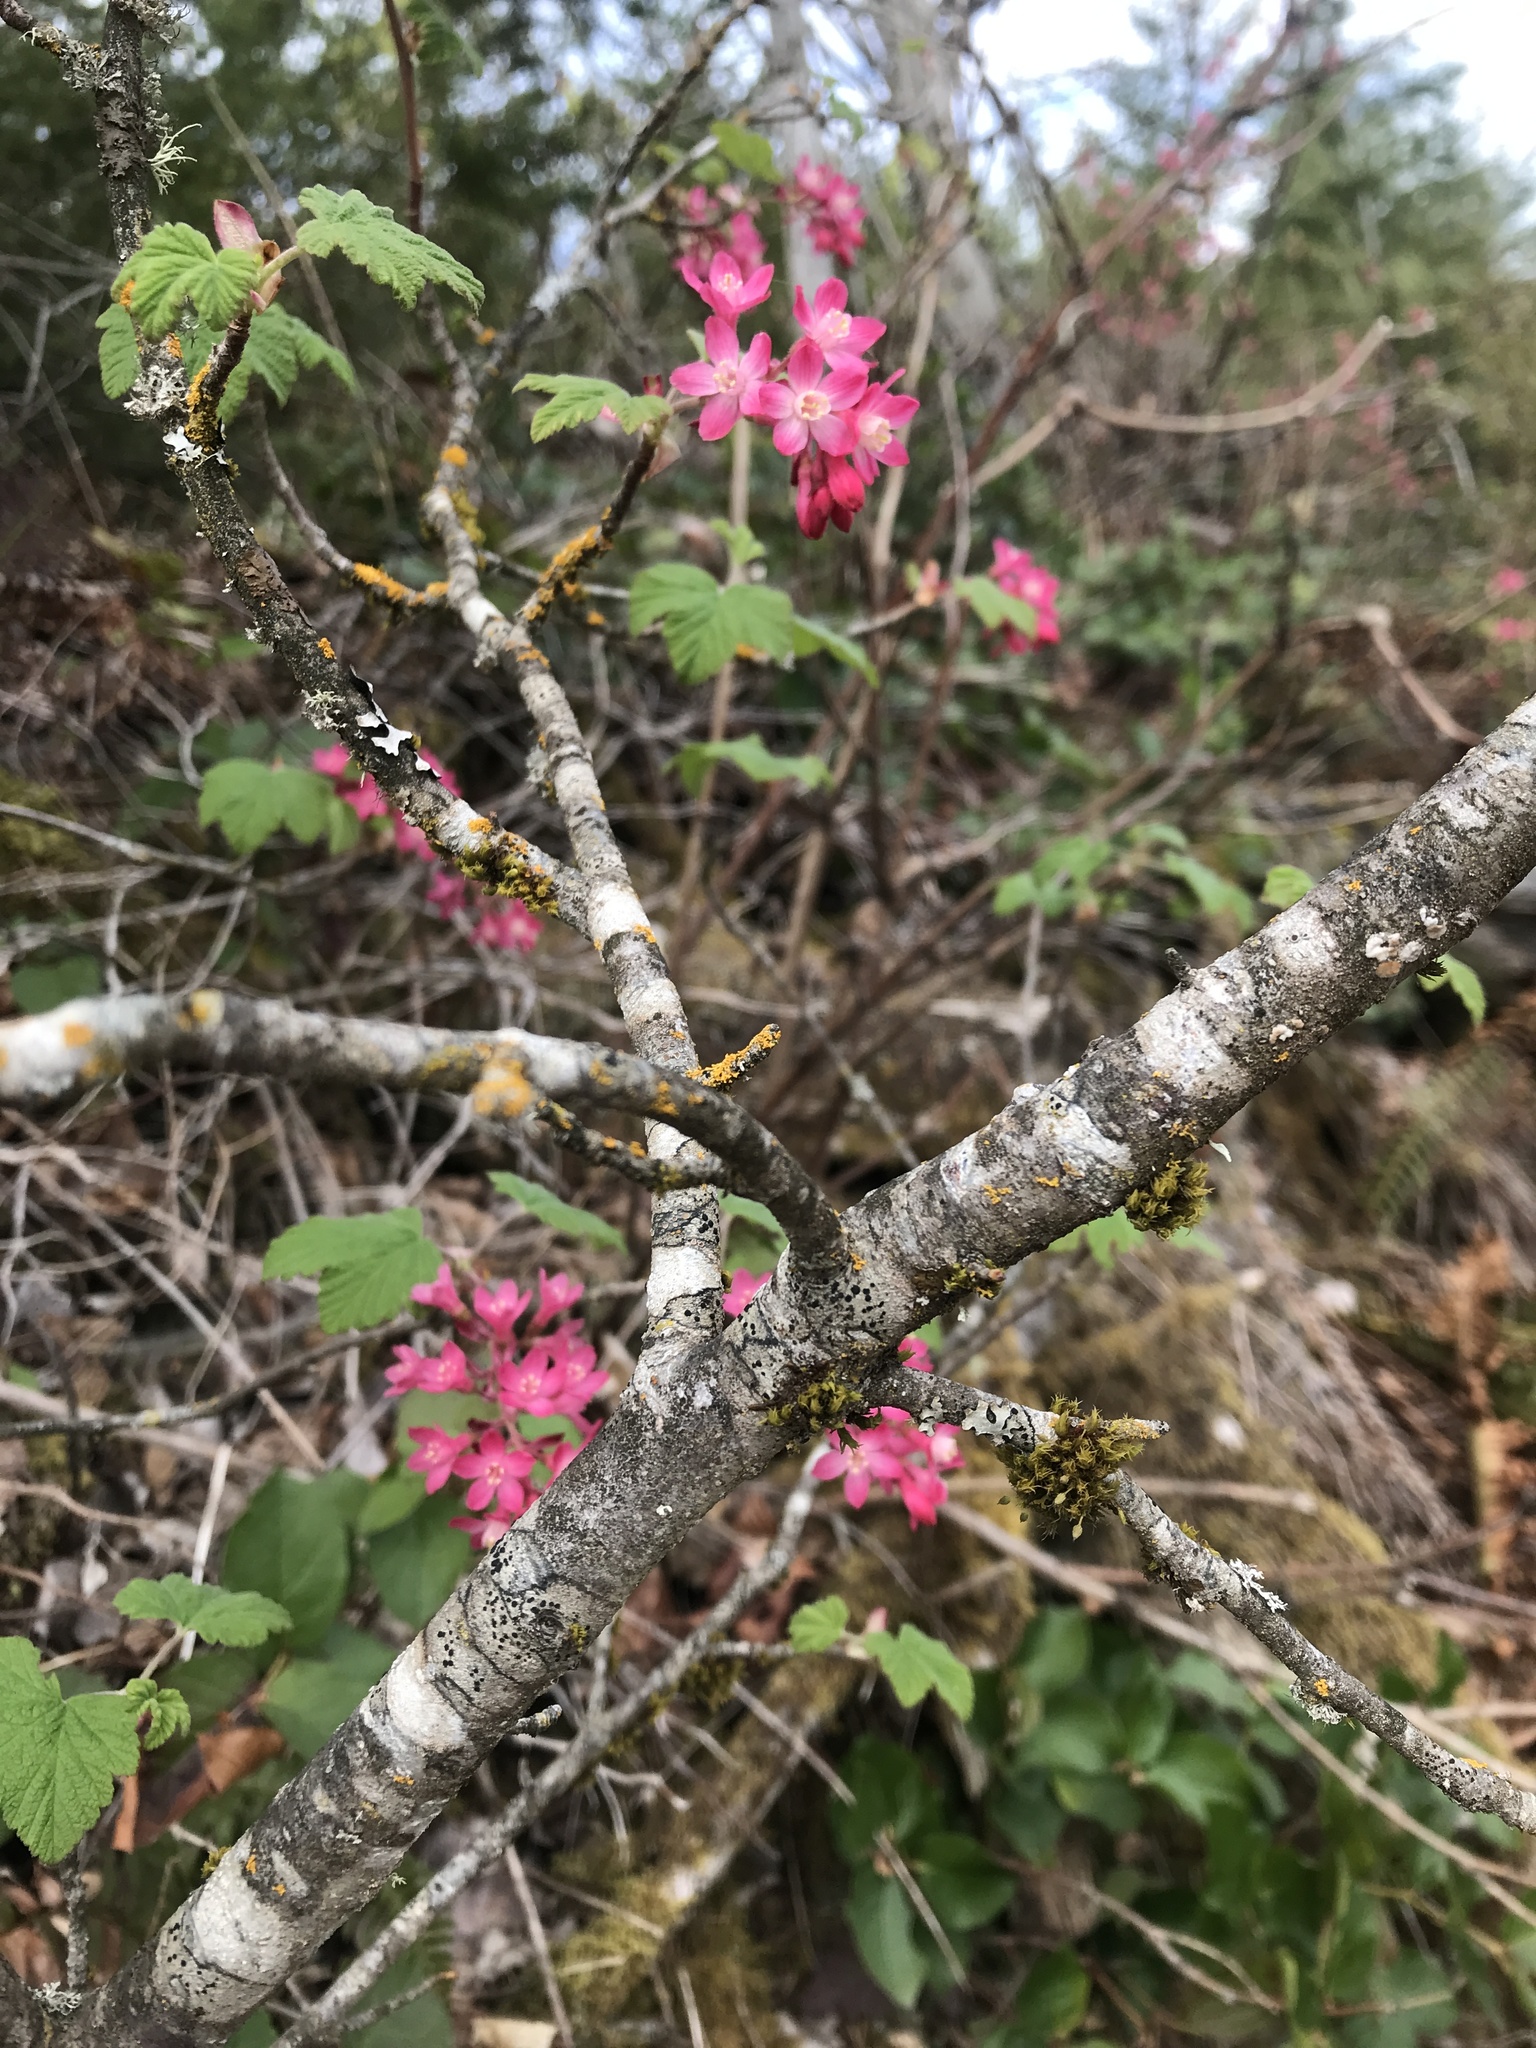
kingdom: Plantae
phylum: Tracheophyta
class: Magnoliopsida
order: Saxifragales
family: Grossulariaceae
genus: Ribes
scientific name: Ribes sanguineum
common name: Flowering currant
